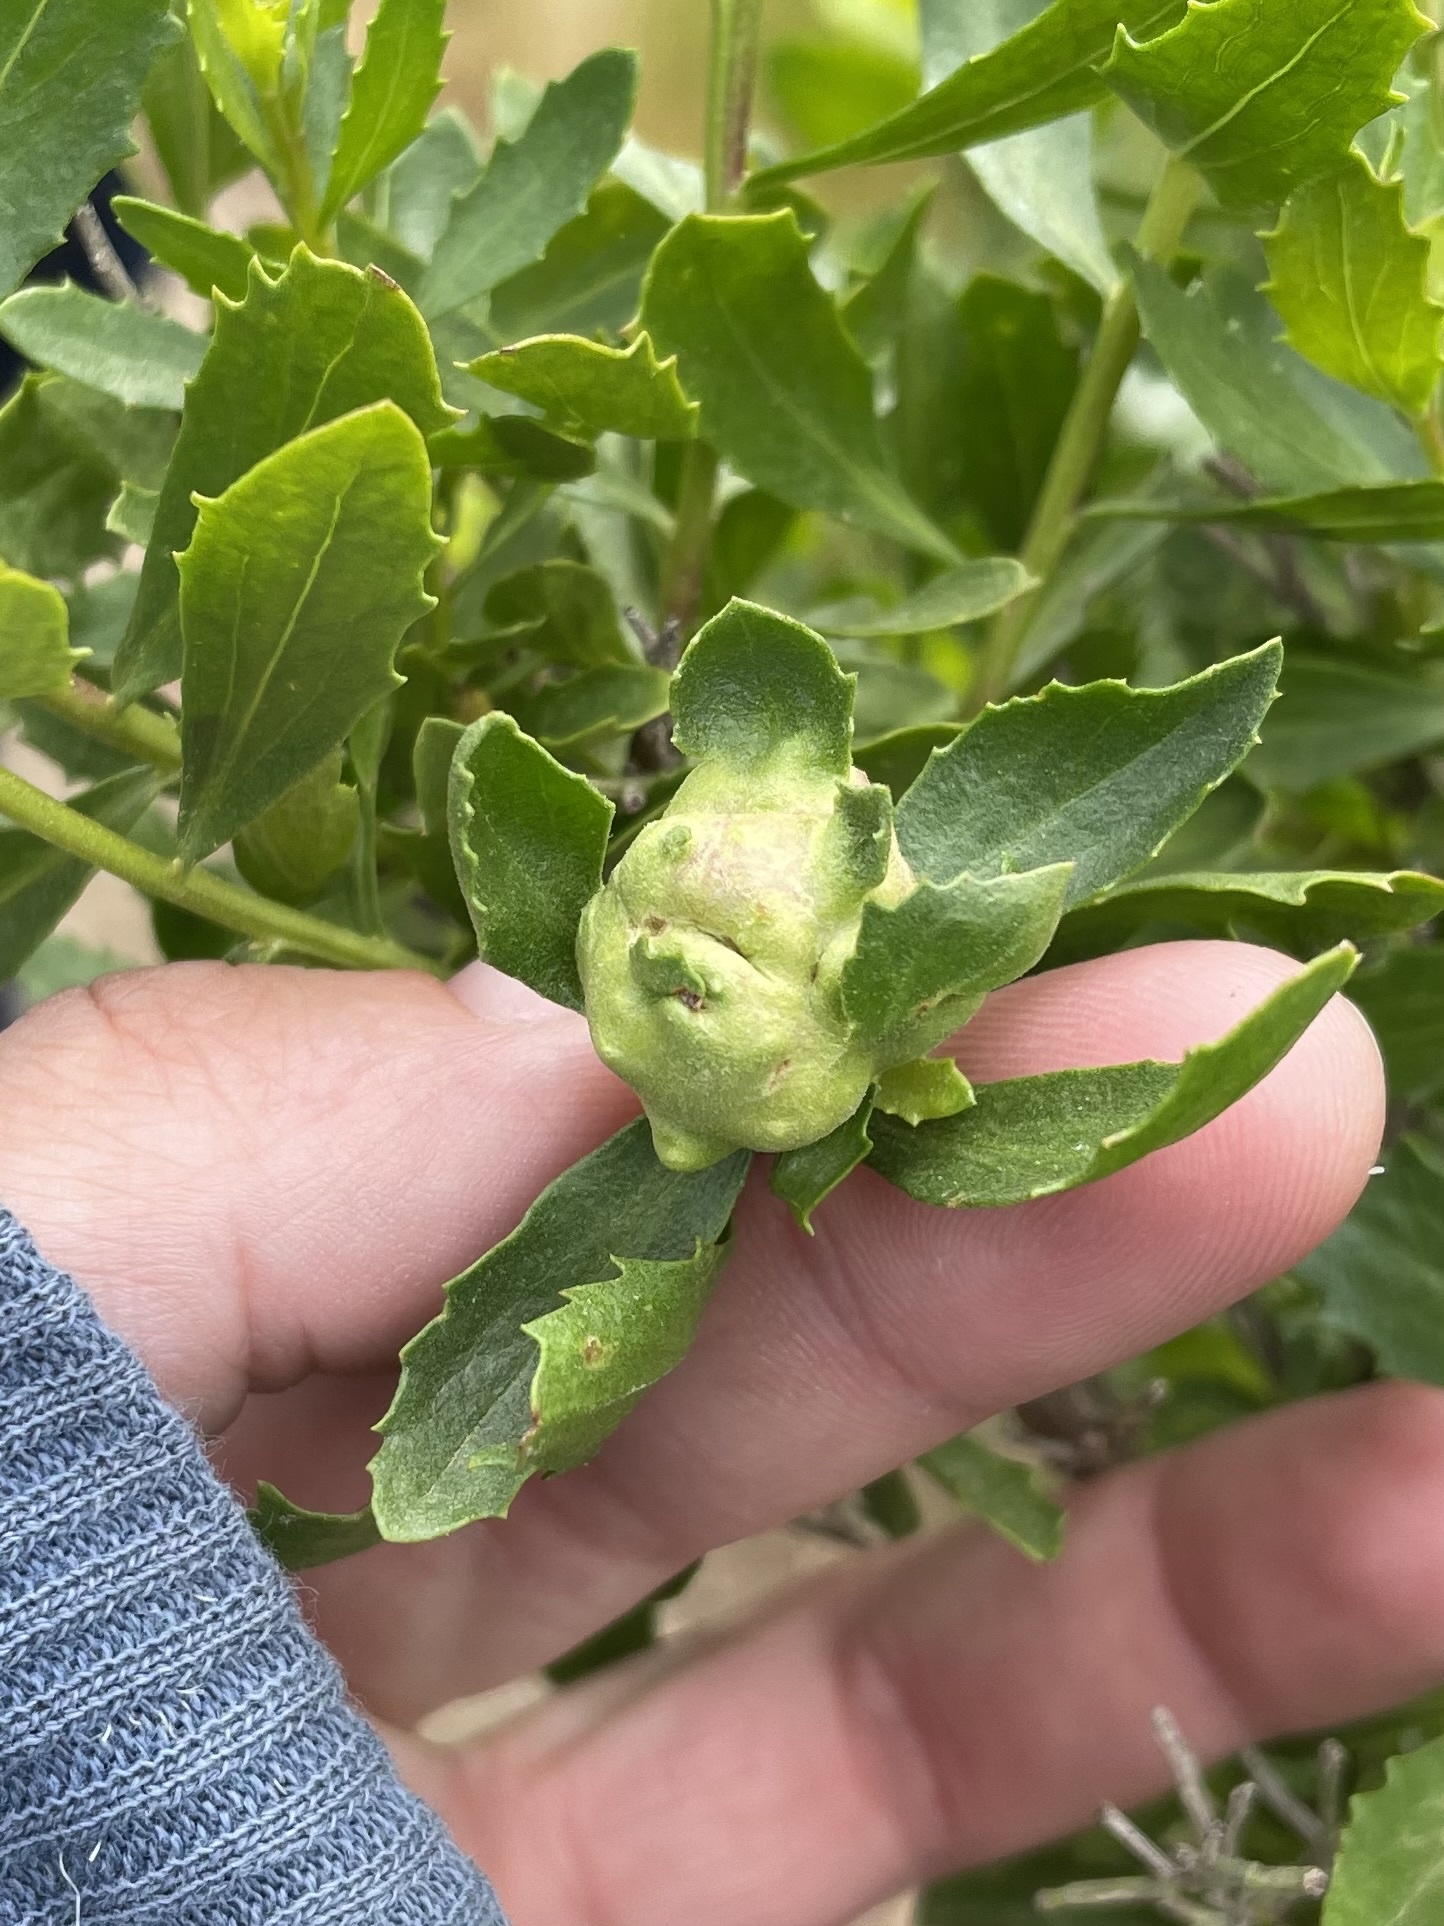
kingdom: Animalia
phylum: Arthropoda
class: Insecta
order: Diptera
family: Cecidomyiidae
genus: Rhopalomyia
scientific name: Rhopalomyia californica
